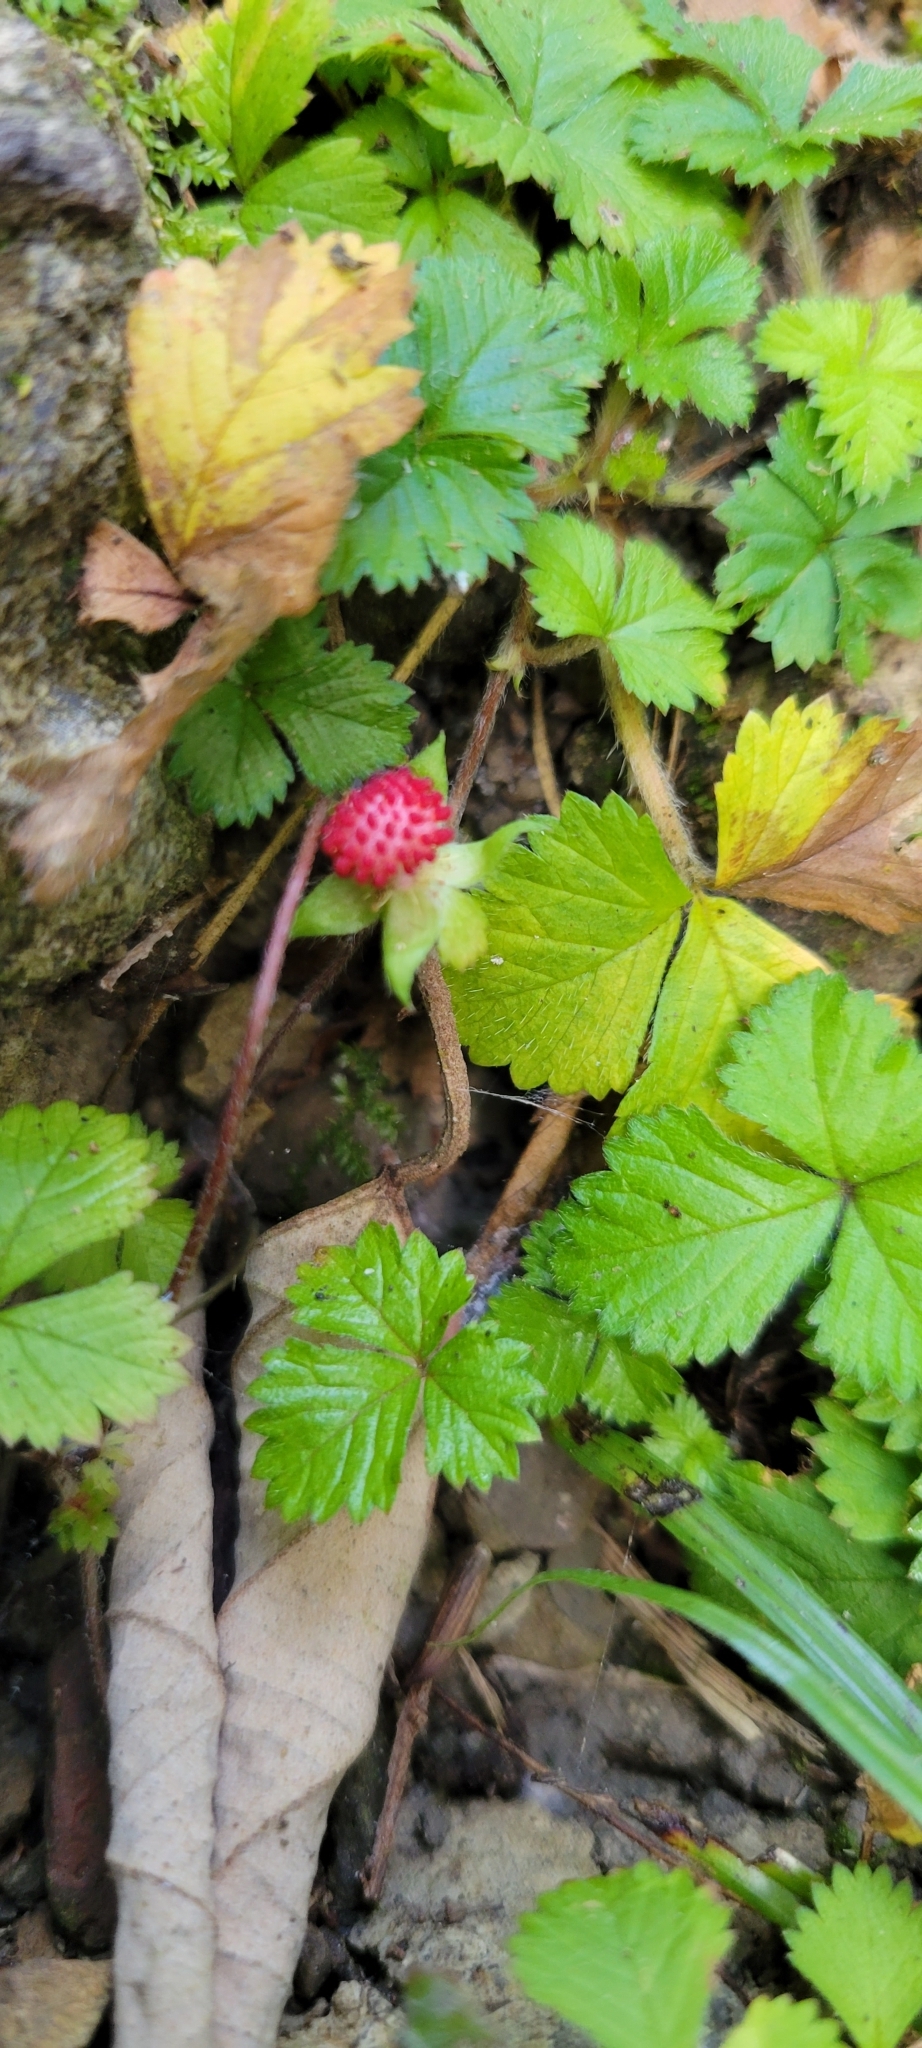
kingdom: Plantae
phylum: Tracheophyta
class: Magnoliopsida
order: Rosales
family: Rosaceae
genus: Potentilla
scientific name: Potentilla wallichiana
